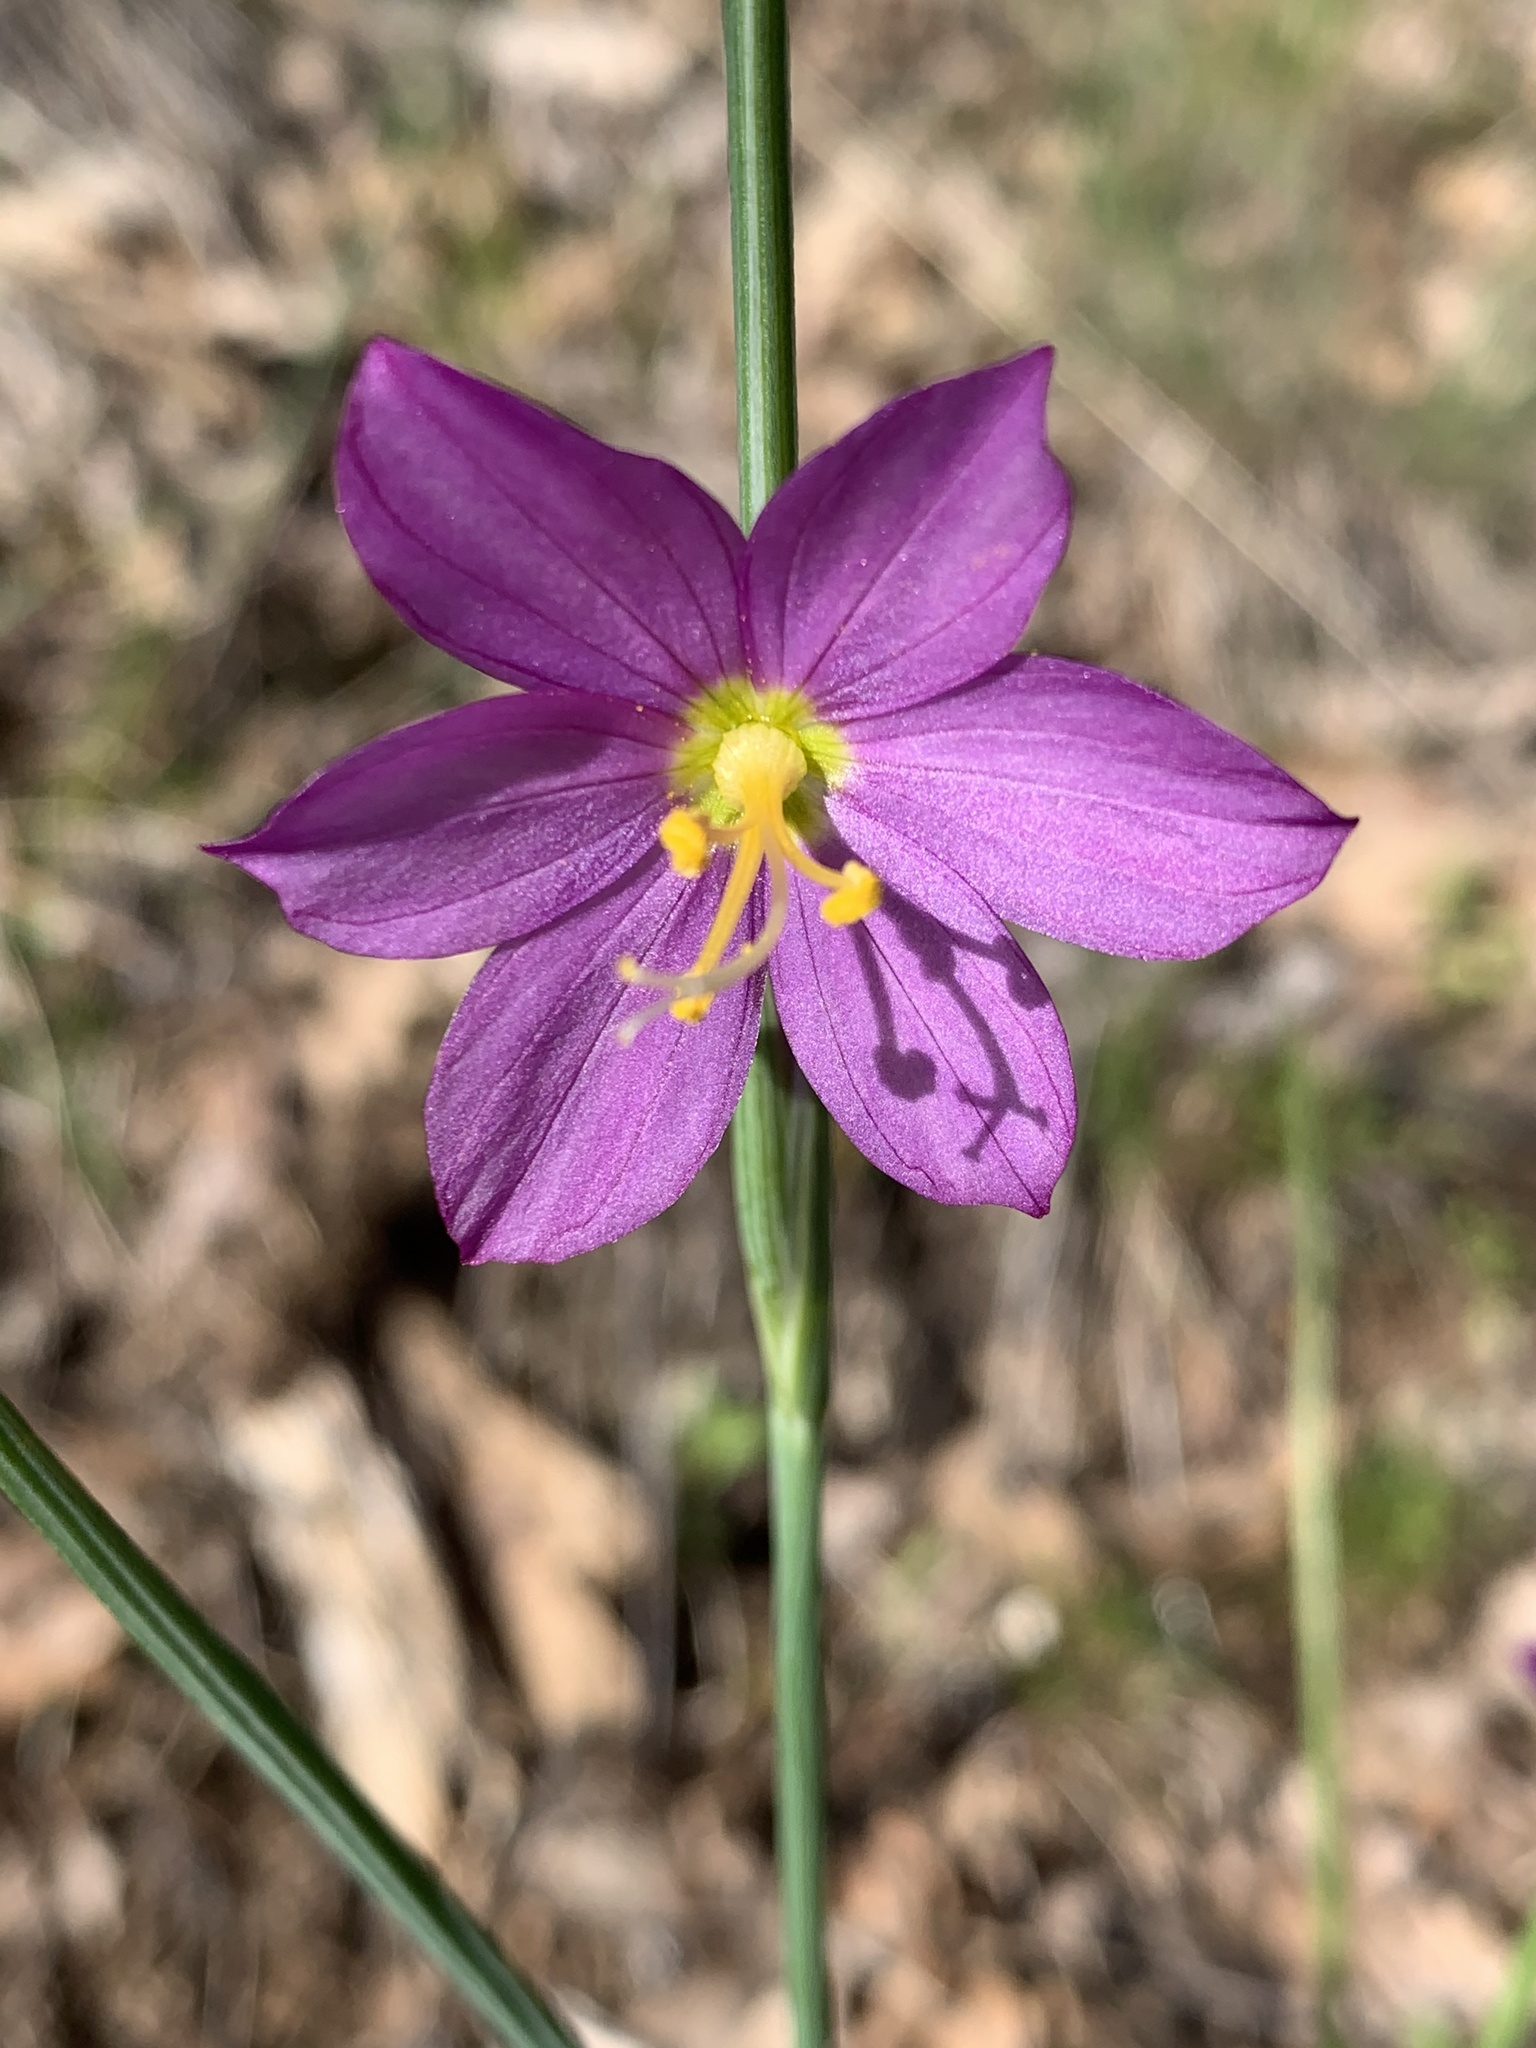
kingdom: Plantae
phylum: Tracheophyta
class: Liliopsida
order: Asparagales
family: Iridaceae
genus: Olsynium
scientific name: Olsynium douglasii
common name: Douglas' grasswidow
